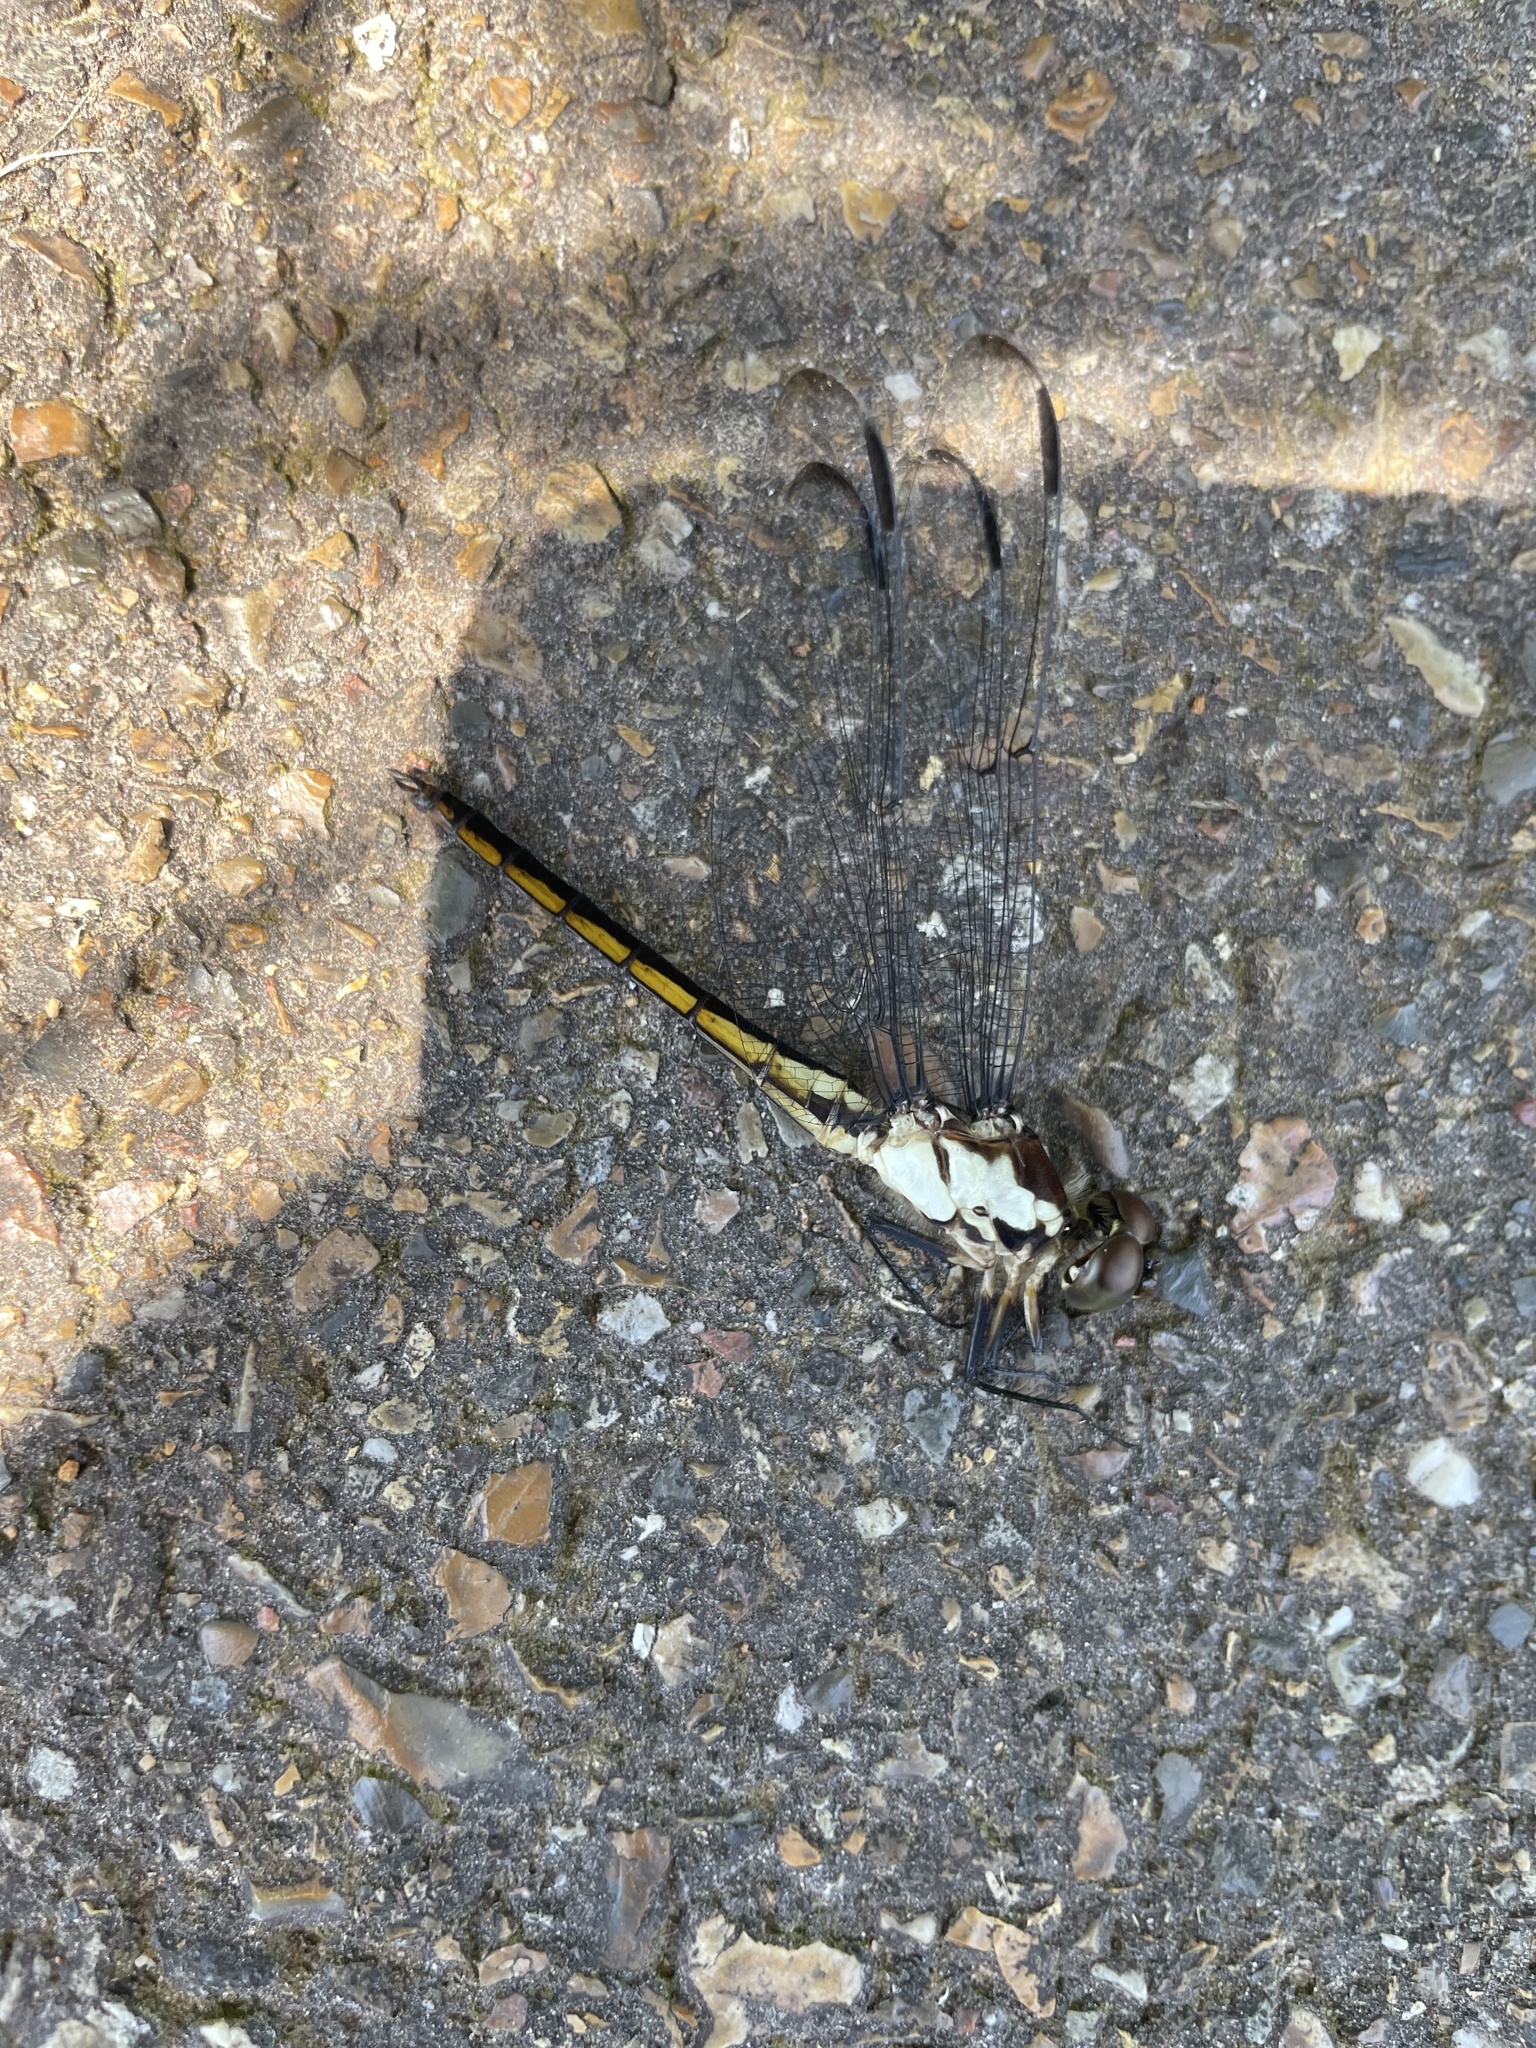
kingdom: Animalia
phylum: Arthropoda
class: Insecta
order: Odonata
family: Libellulidae
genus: Libellula
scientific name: Libellula incesta
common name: Slaty skimmer
